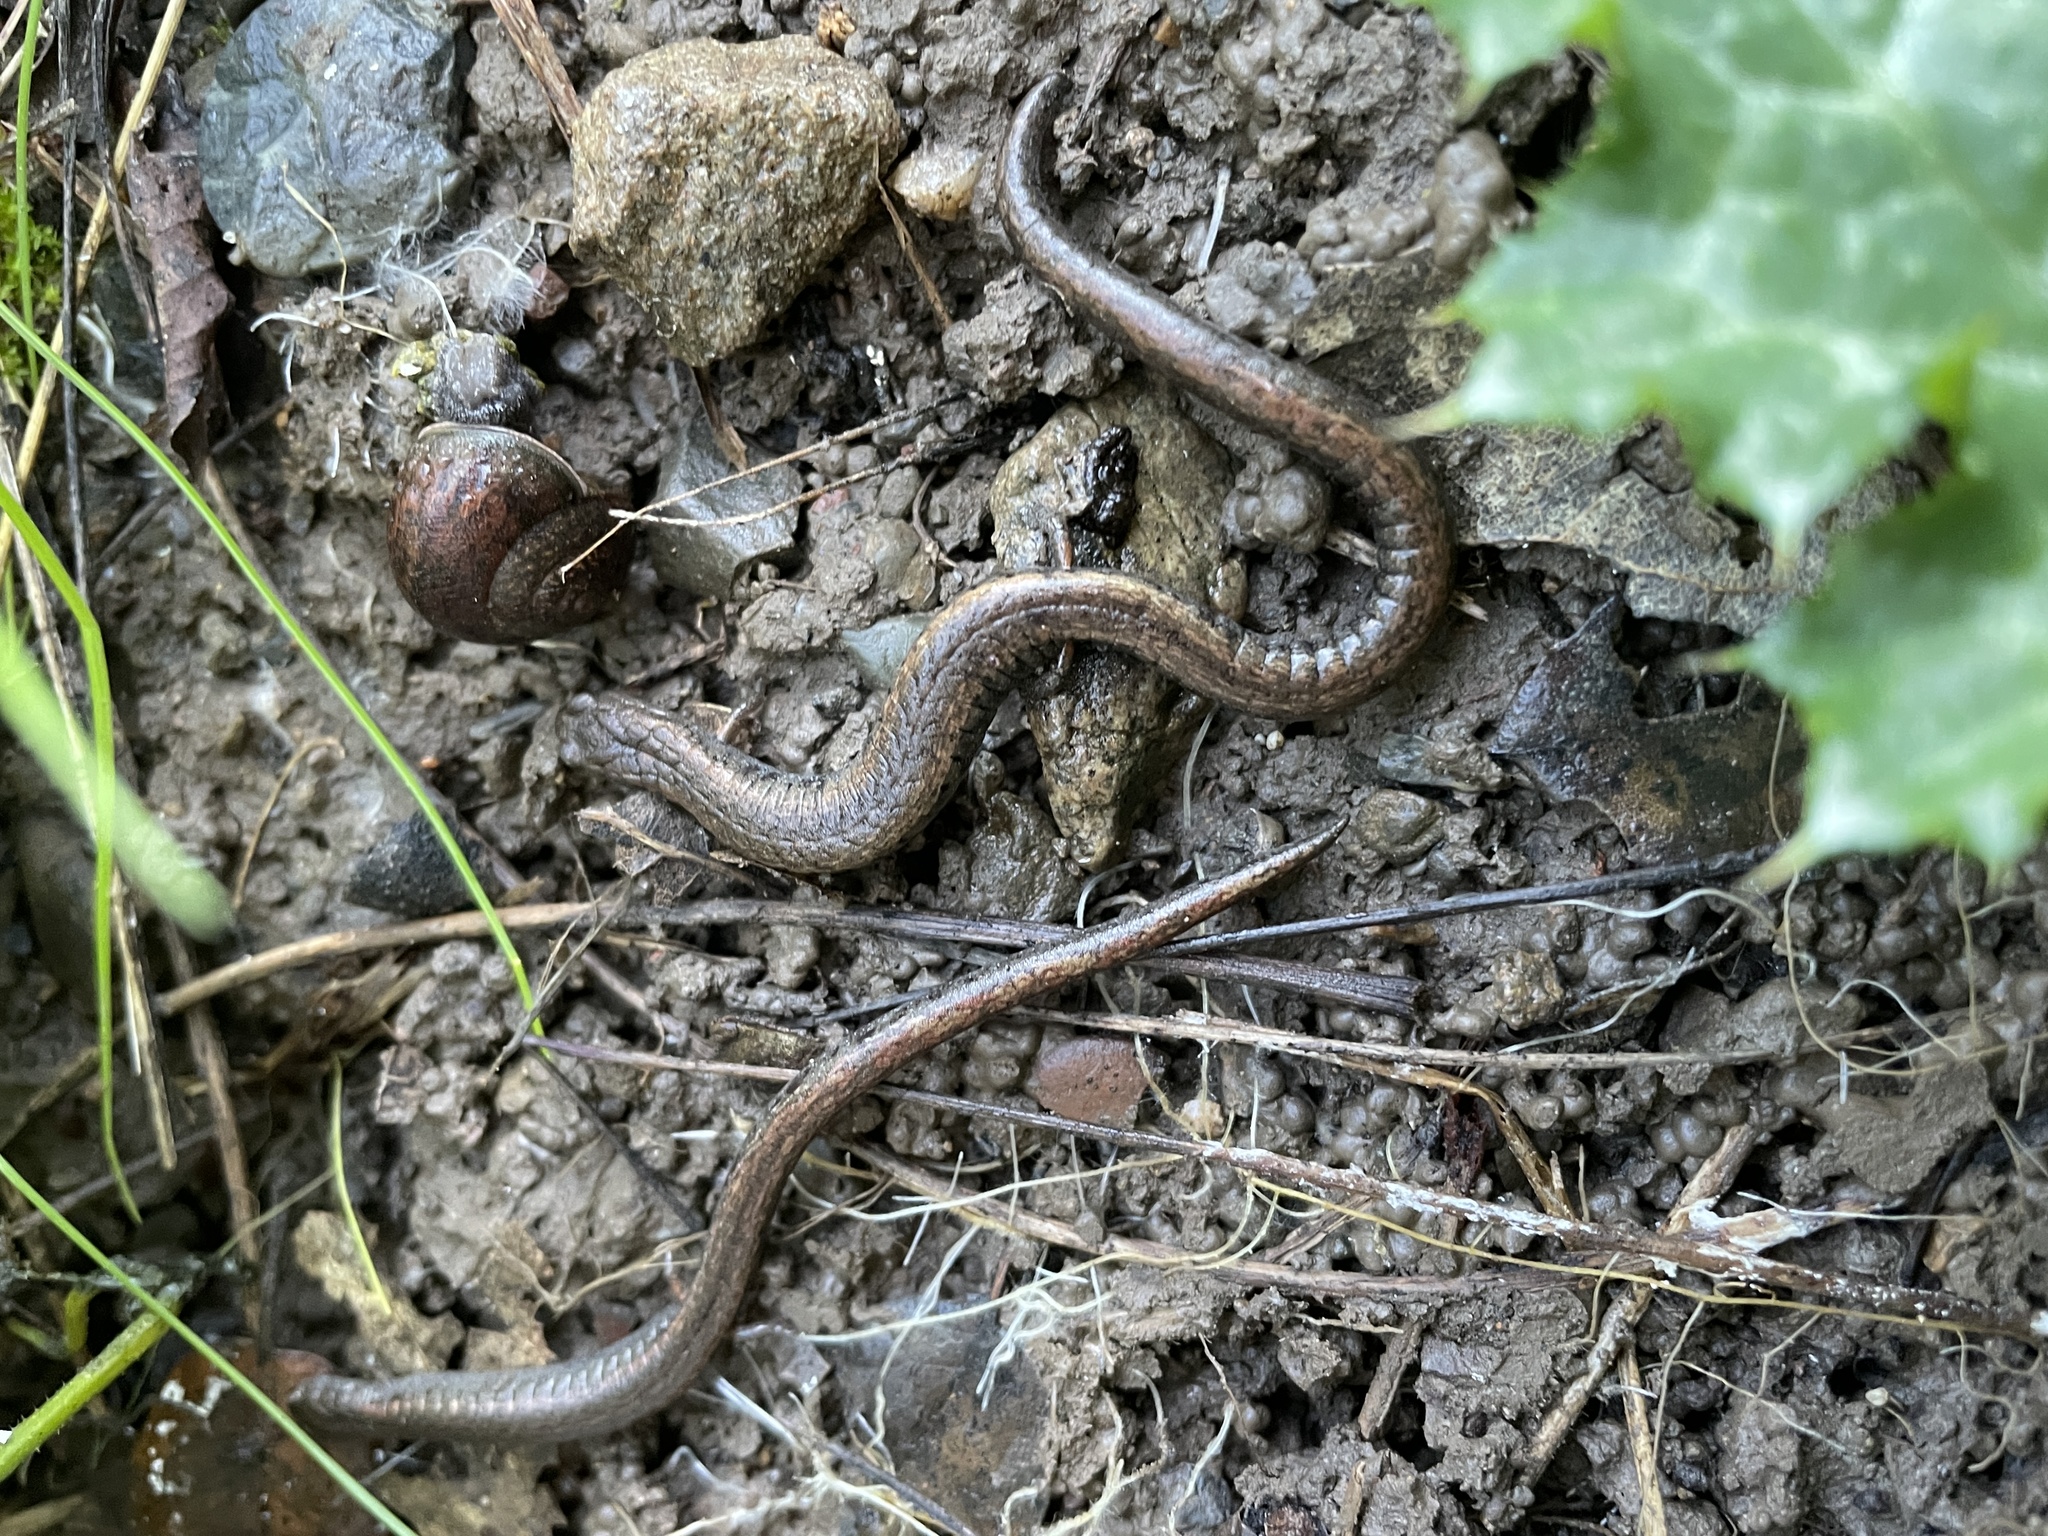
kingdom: Animalia
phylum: Chordata
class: Amphibia
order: Caudata
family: Plethodontidae
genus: Batrachoseps
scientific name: Batrachoseps attenuatus
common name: California slender salamander
